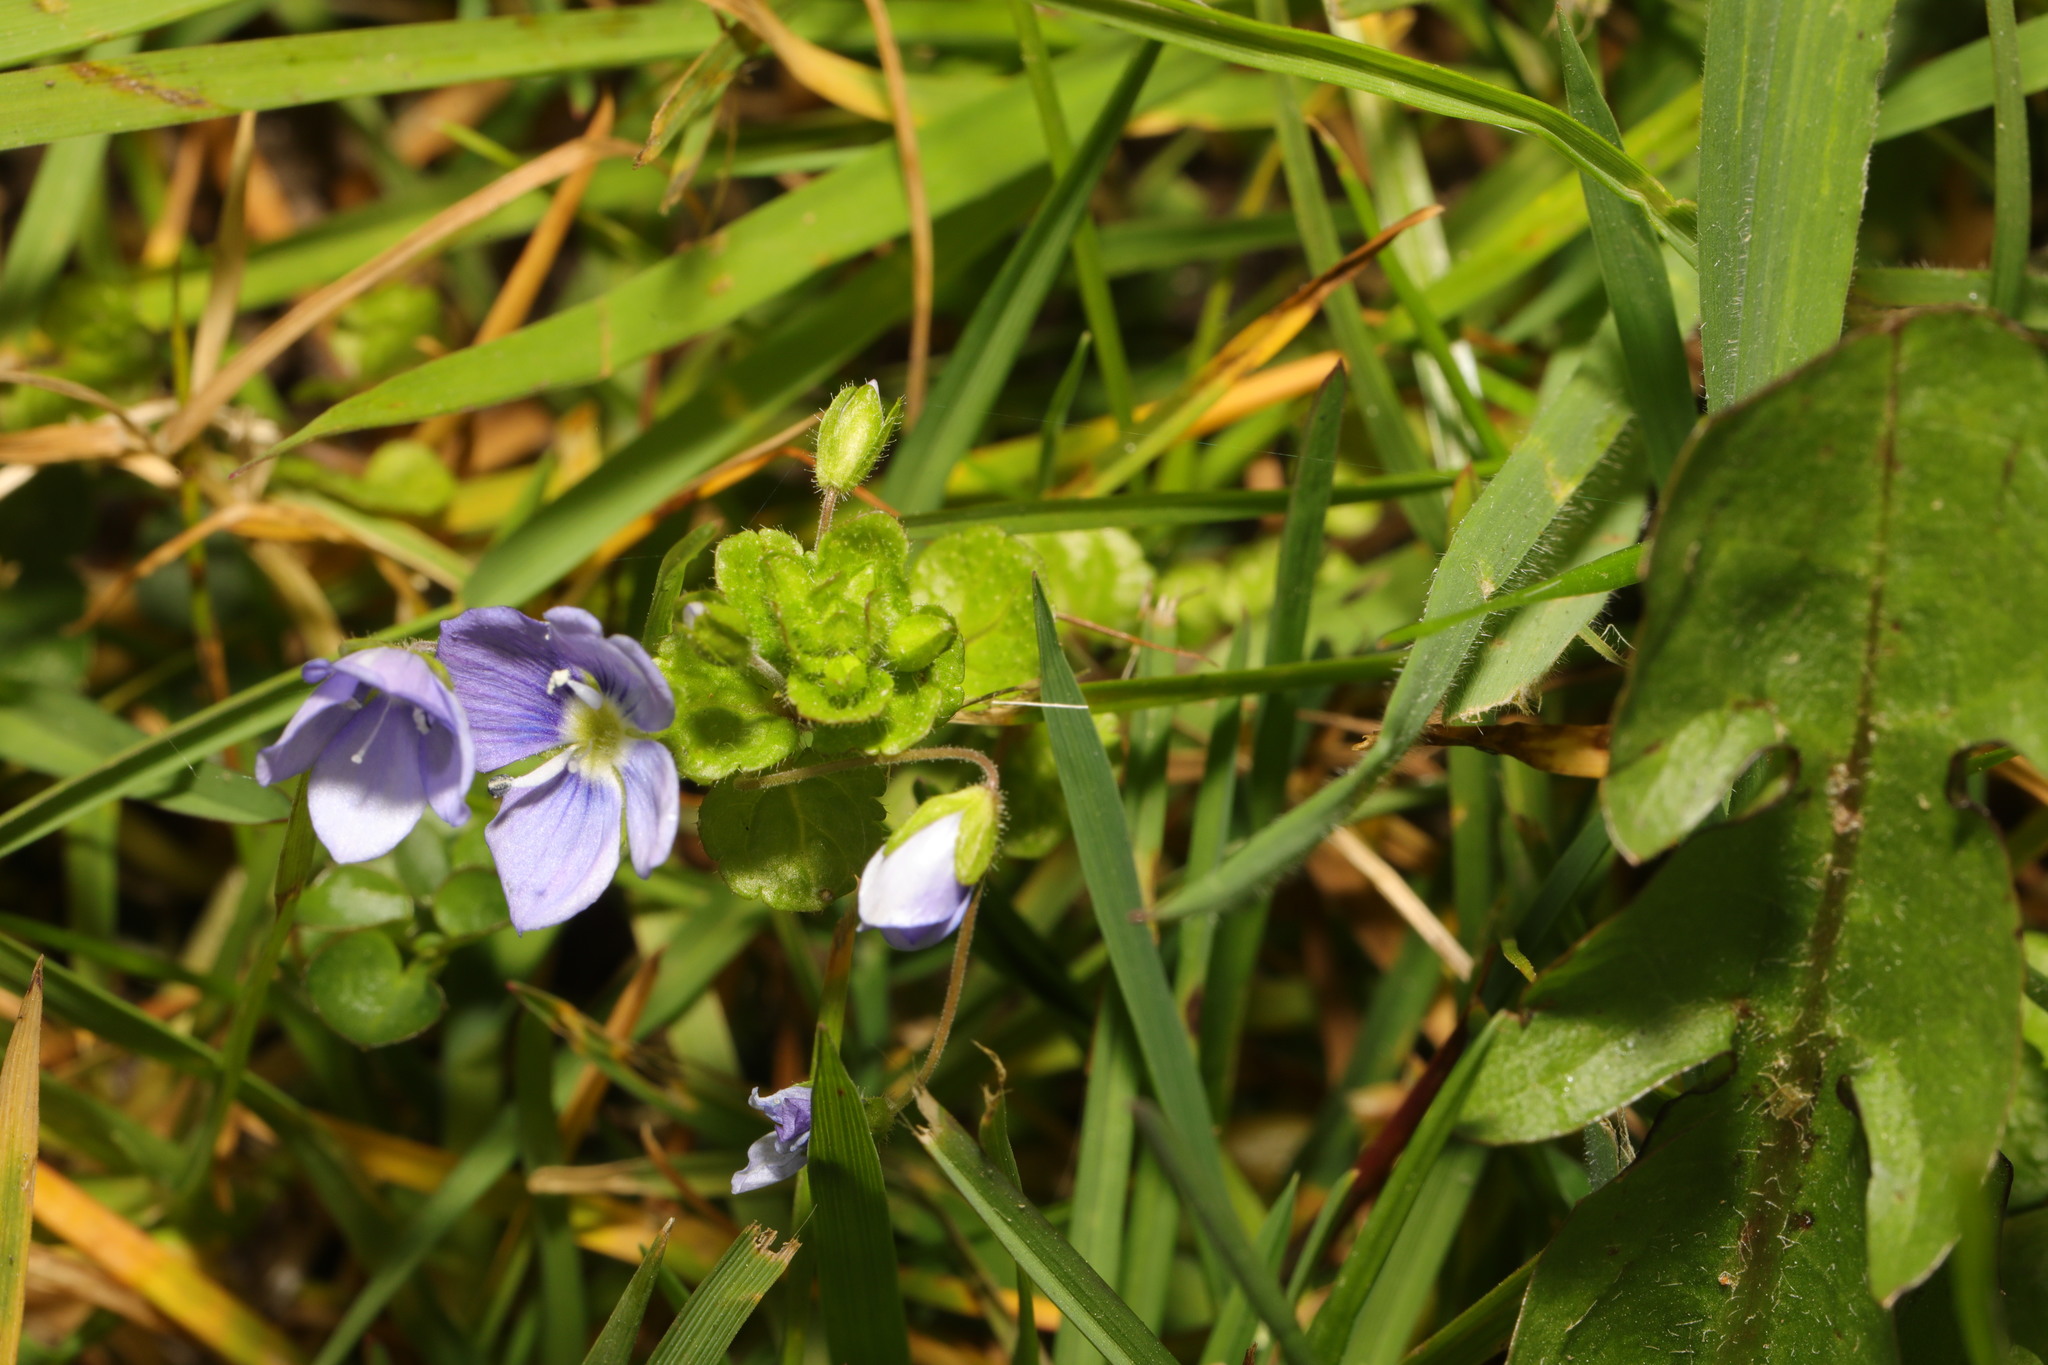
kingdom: Plantae
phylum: Tracheophyta
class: Magnoliopsida
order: Lamiales
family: Plantaginaceae
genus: Veronica
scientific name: Veronica filiformis
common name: Slender speedwell
